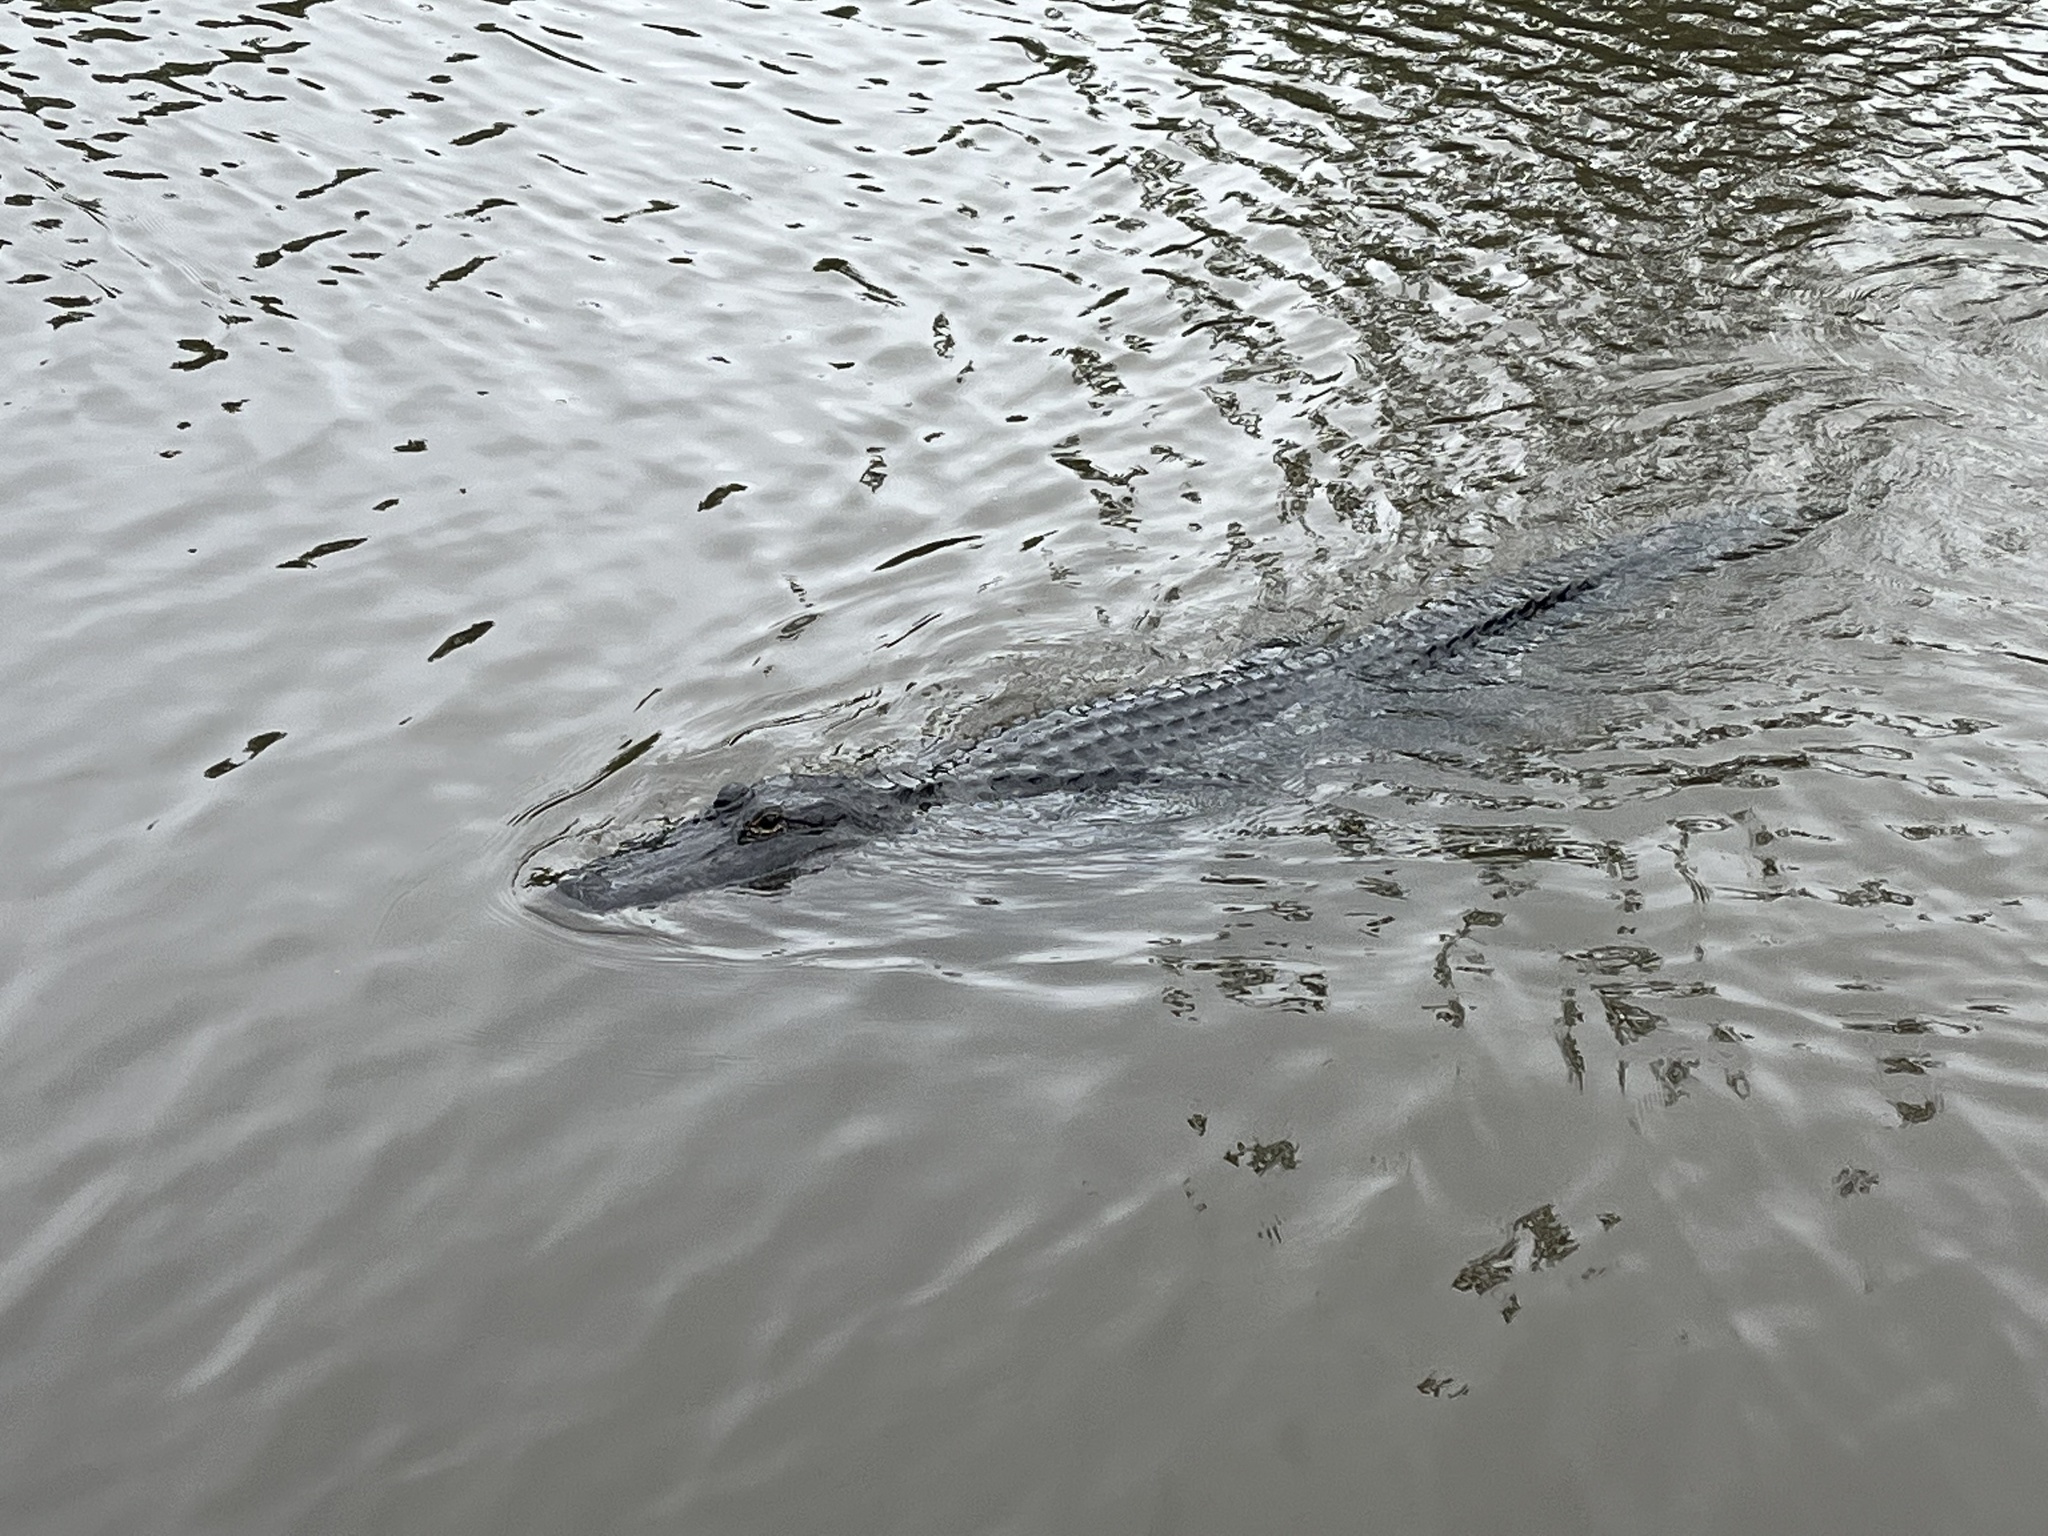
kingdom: Animalia
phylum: Chordata
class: Crocodylia
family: Alligatoridae
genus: Alligator
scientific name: Alligator mississippiensis
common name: American alligator
